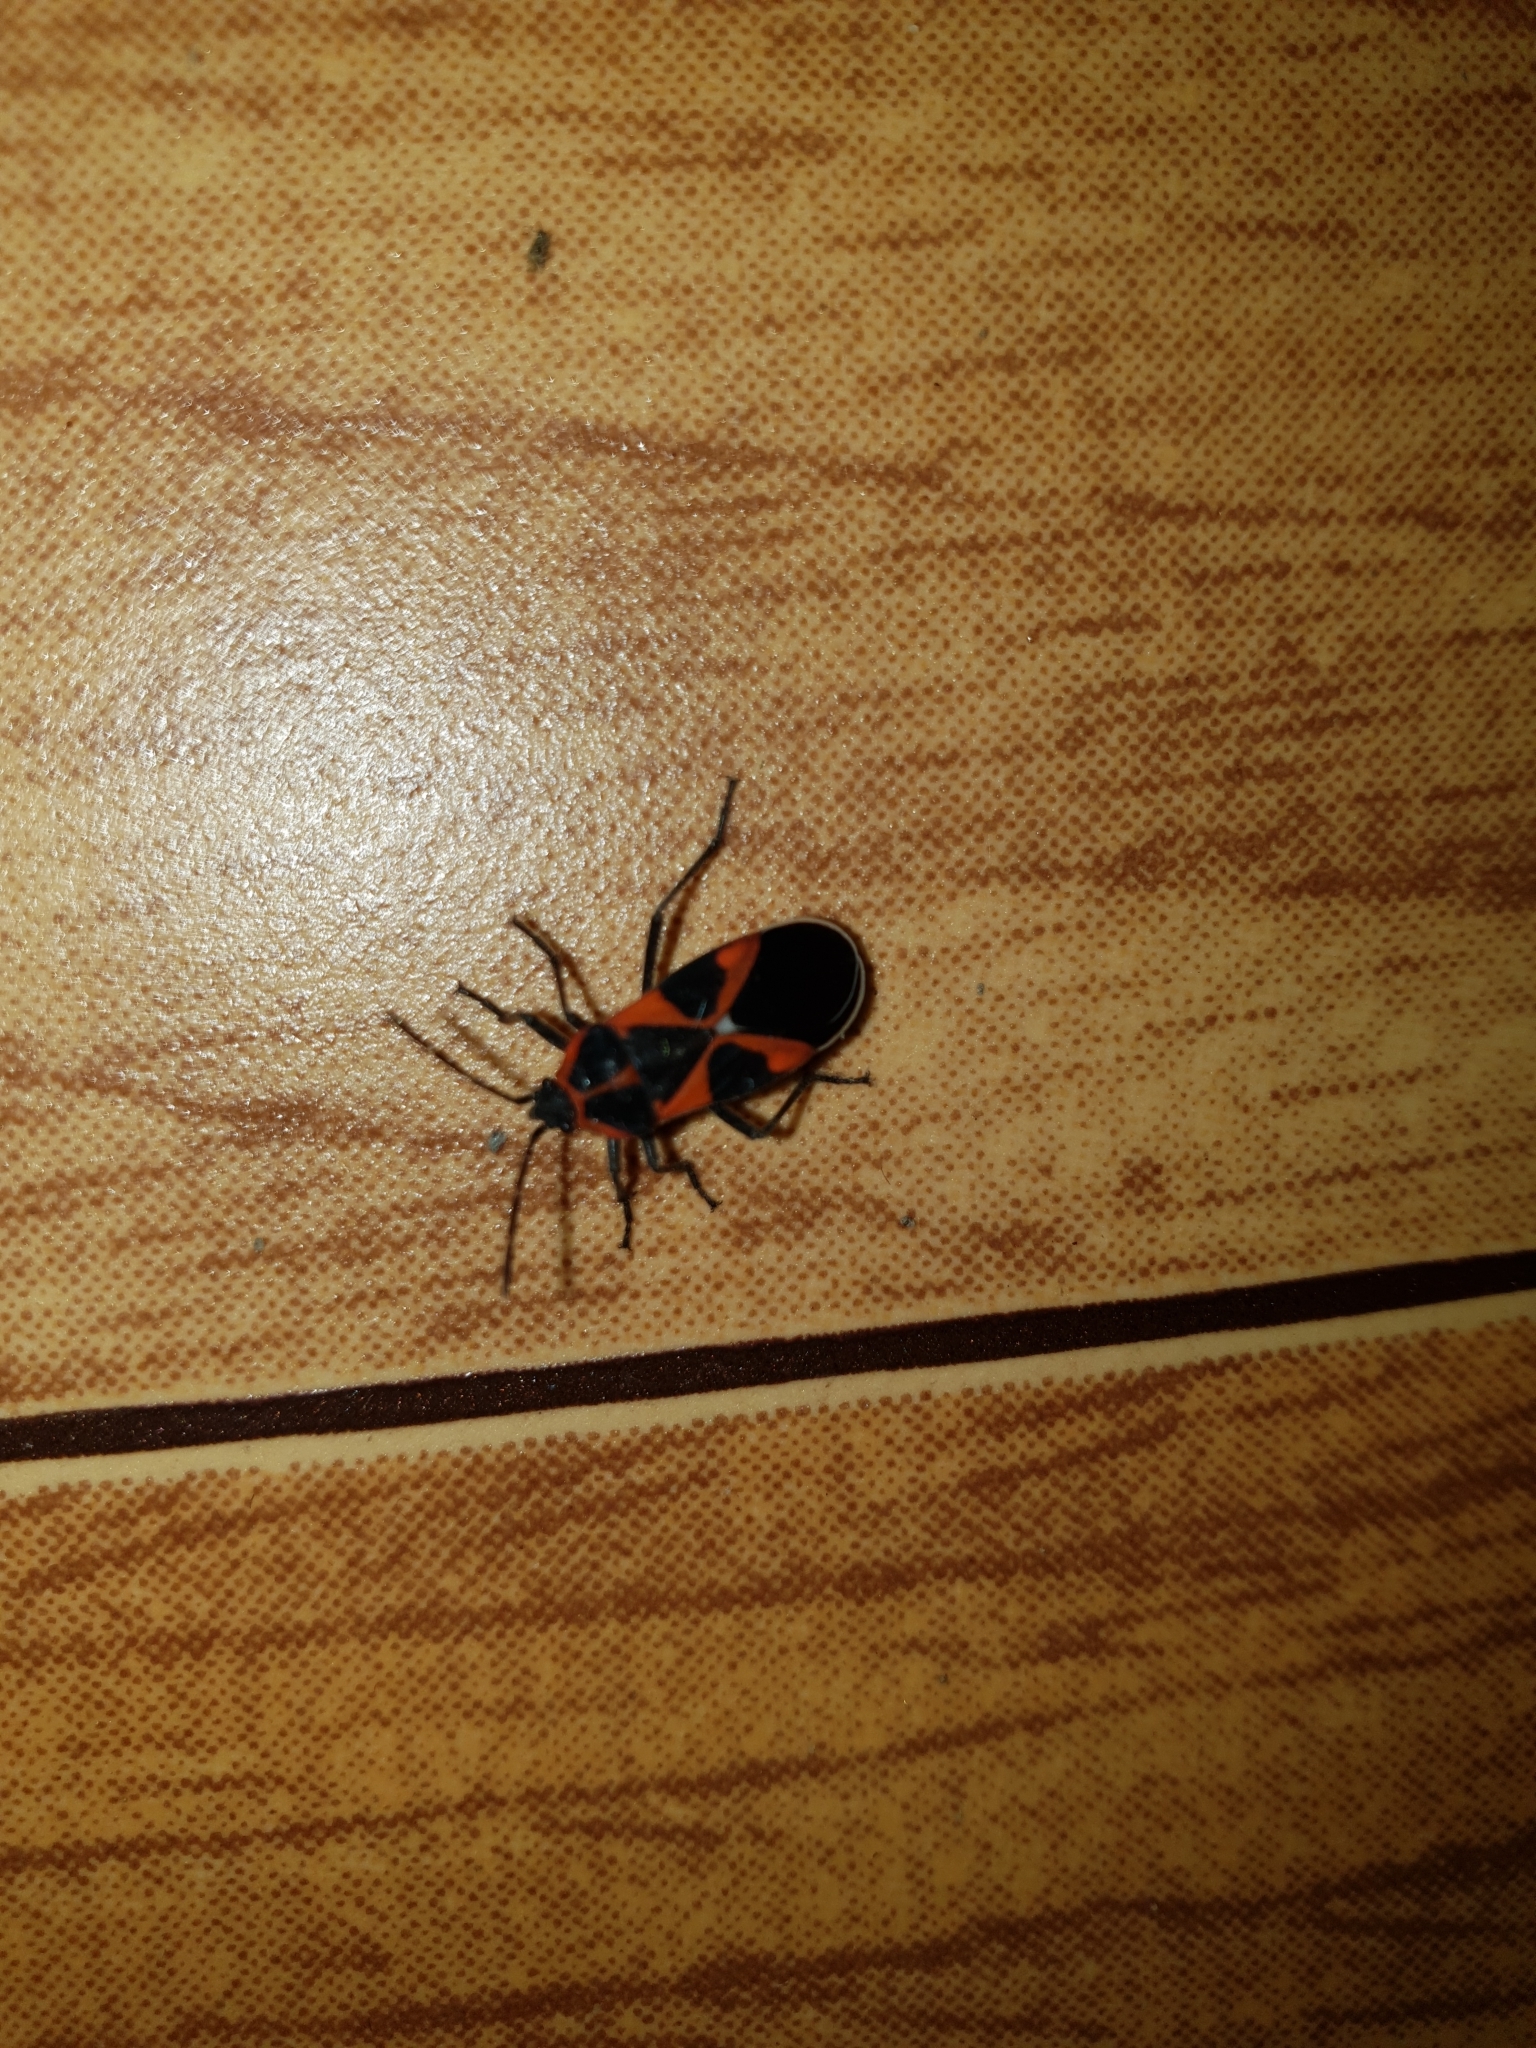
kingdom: Animalia
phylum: Arthropoda
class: Insecta
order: Hemiptera
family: Lygaeidae
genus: Tropidothorax
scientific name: Tropidothorax leucopterus
